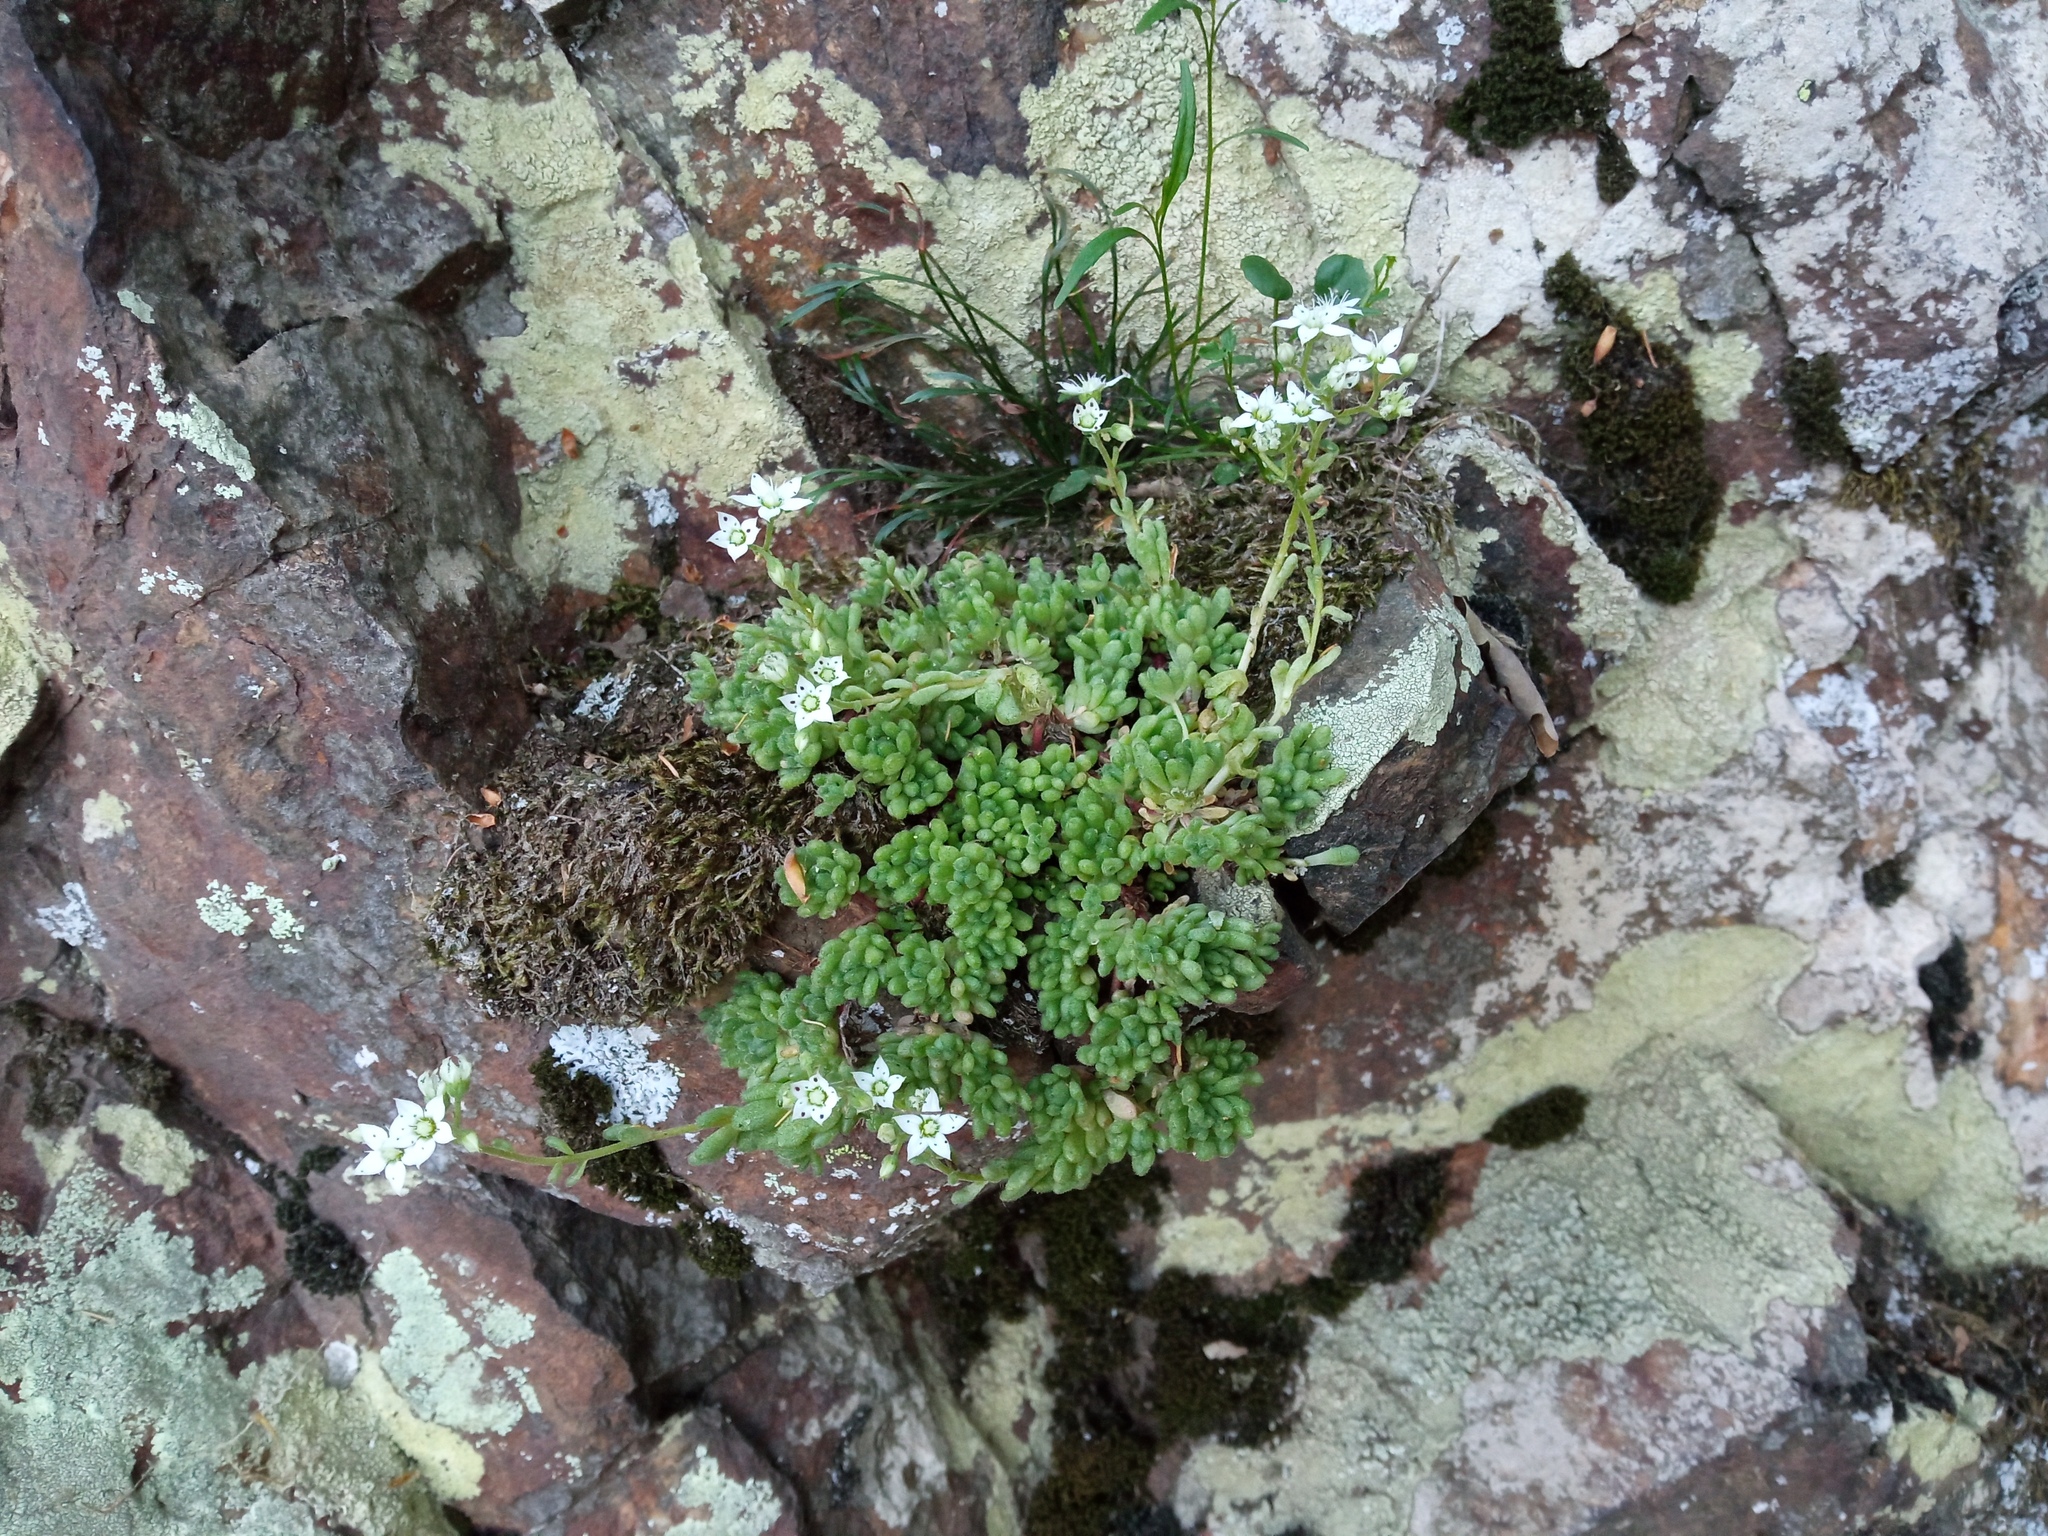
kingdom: Plantae
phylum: Tracheophyta
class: Magnoliopsida
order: Saxifragales
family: Crassulaceae
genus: Sedum
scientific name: Sedum hirsutum
